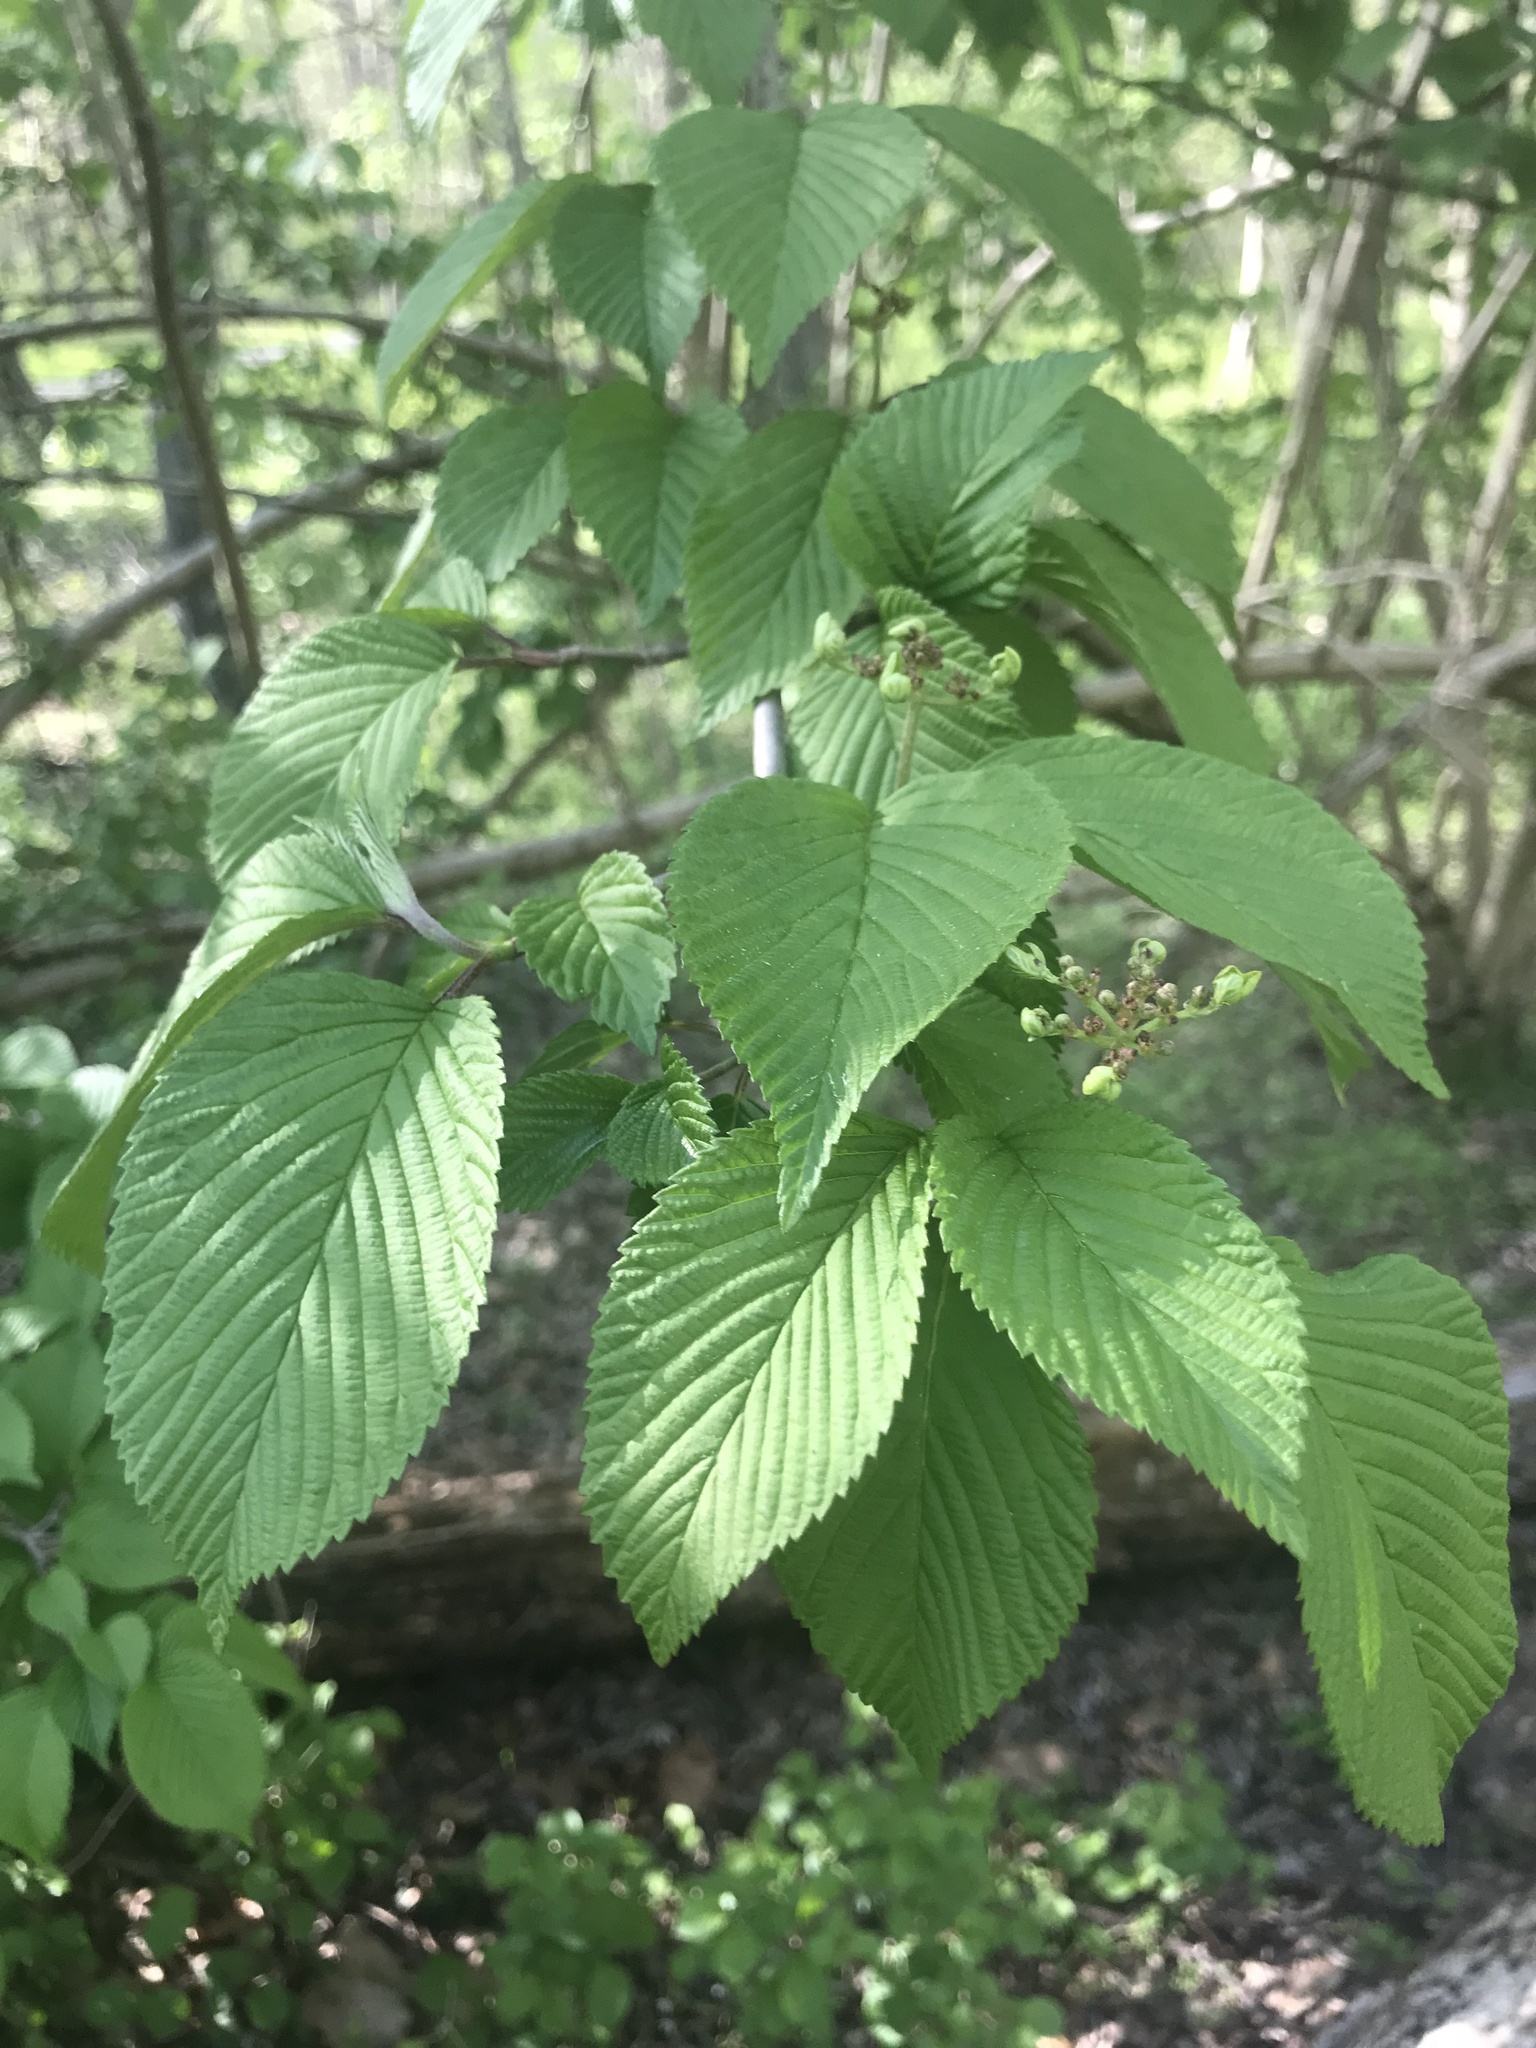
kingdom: Plantae
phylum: Tracheophyta
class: Magnoliopsida
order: Dipsacales
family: Viburnaceae
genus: Viburnum
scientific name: Viburnum plicatum
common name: Japanese snowball
